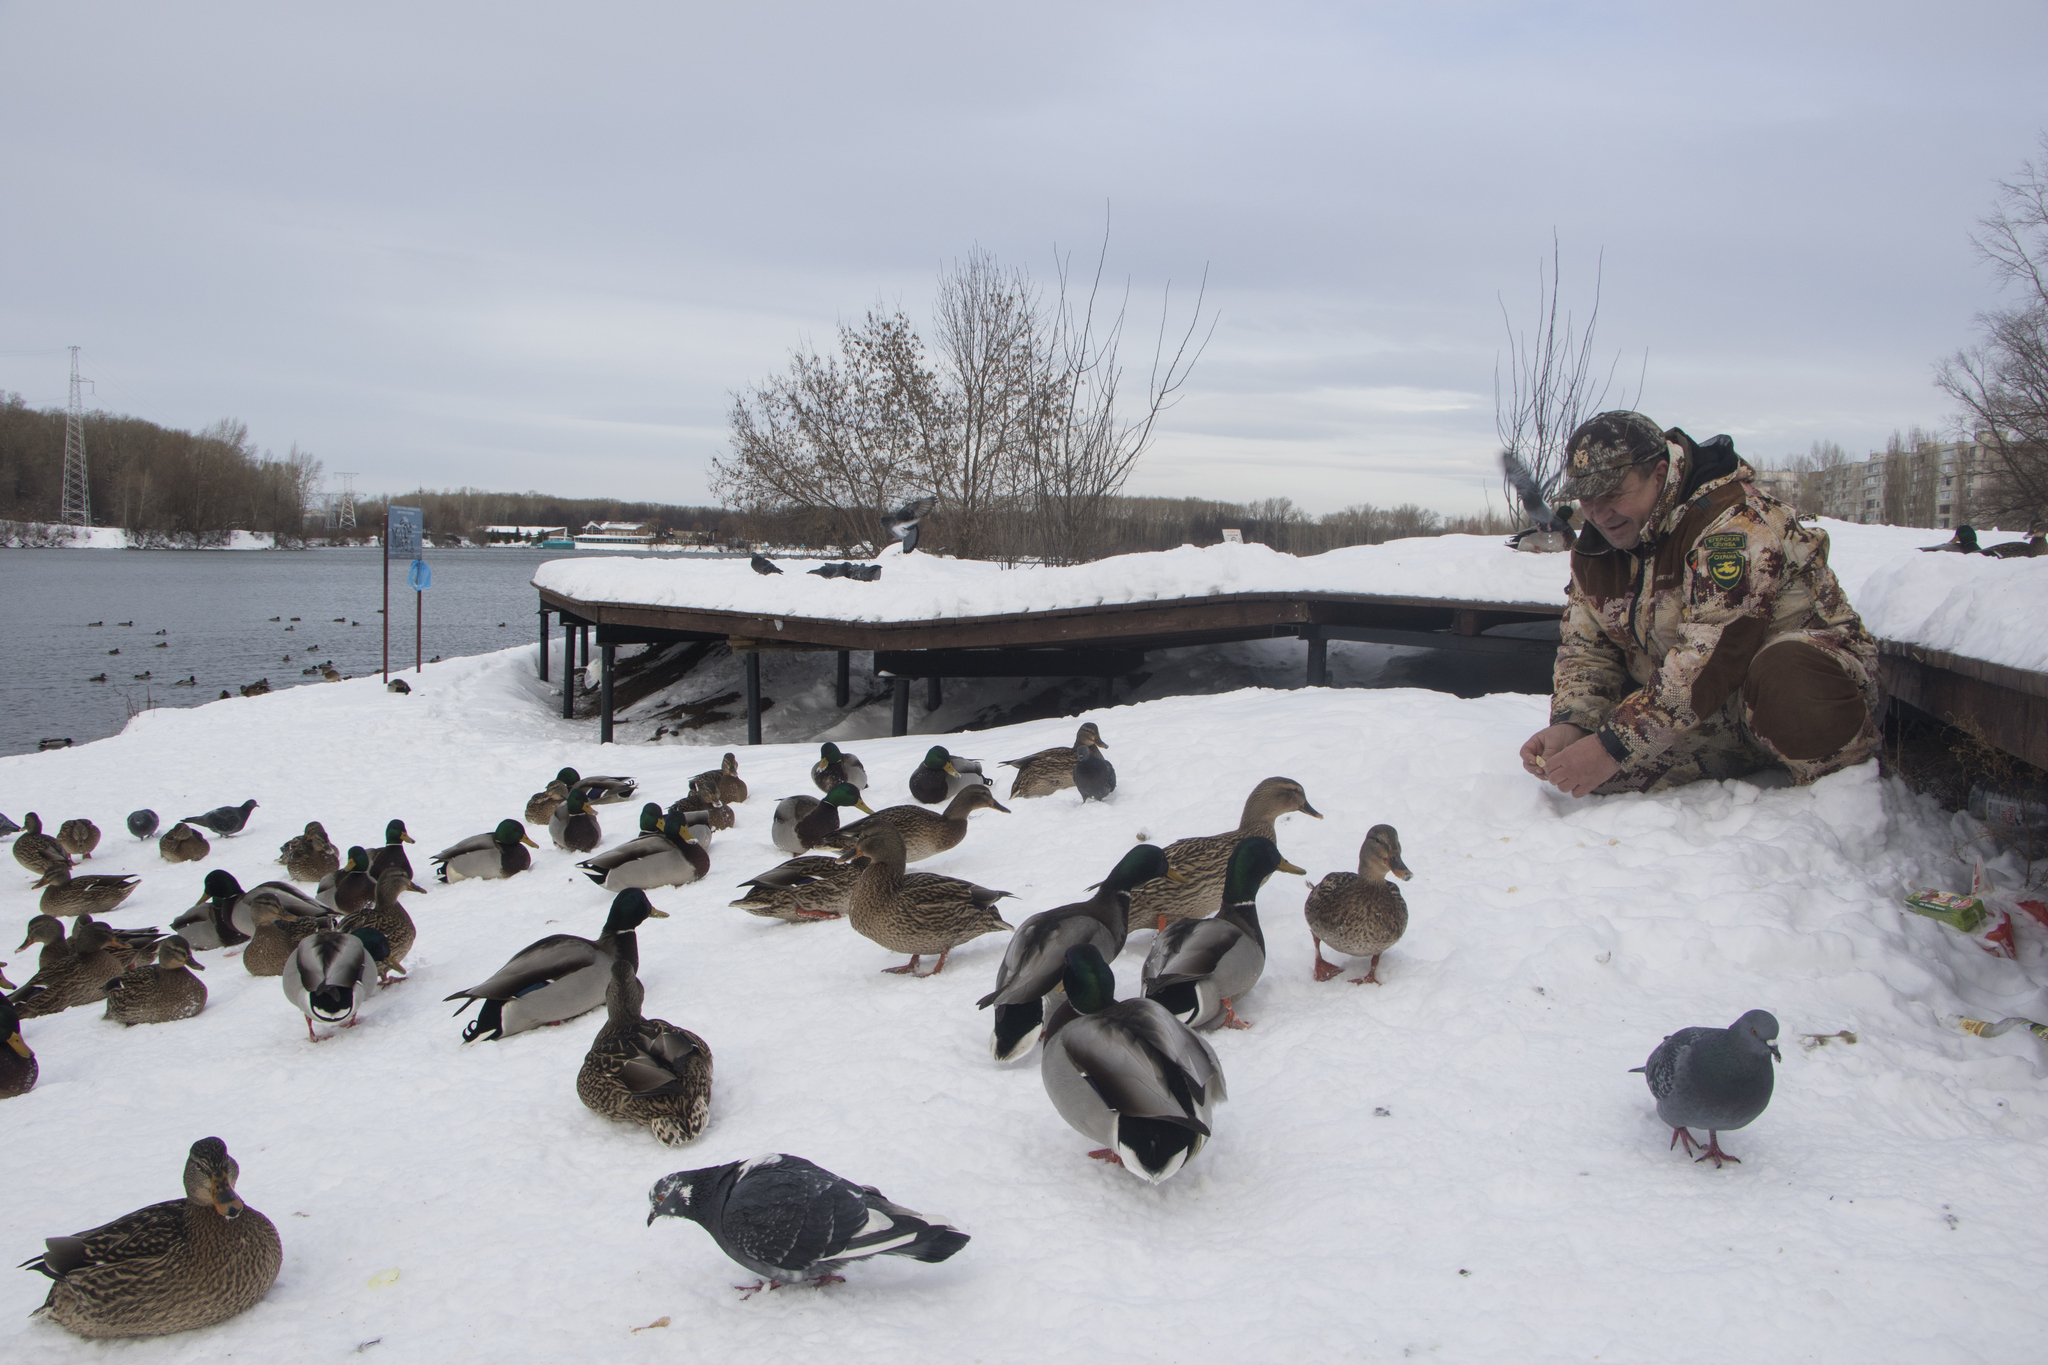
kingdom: Animalia
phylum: Chordata
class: Aves
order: Anseriformes
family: Anatidae
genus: Anas
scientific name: Anas platyrhynchos
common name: Mallard
